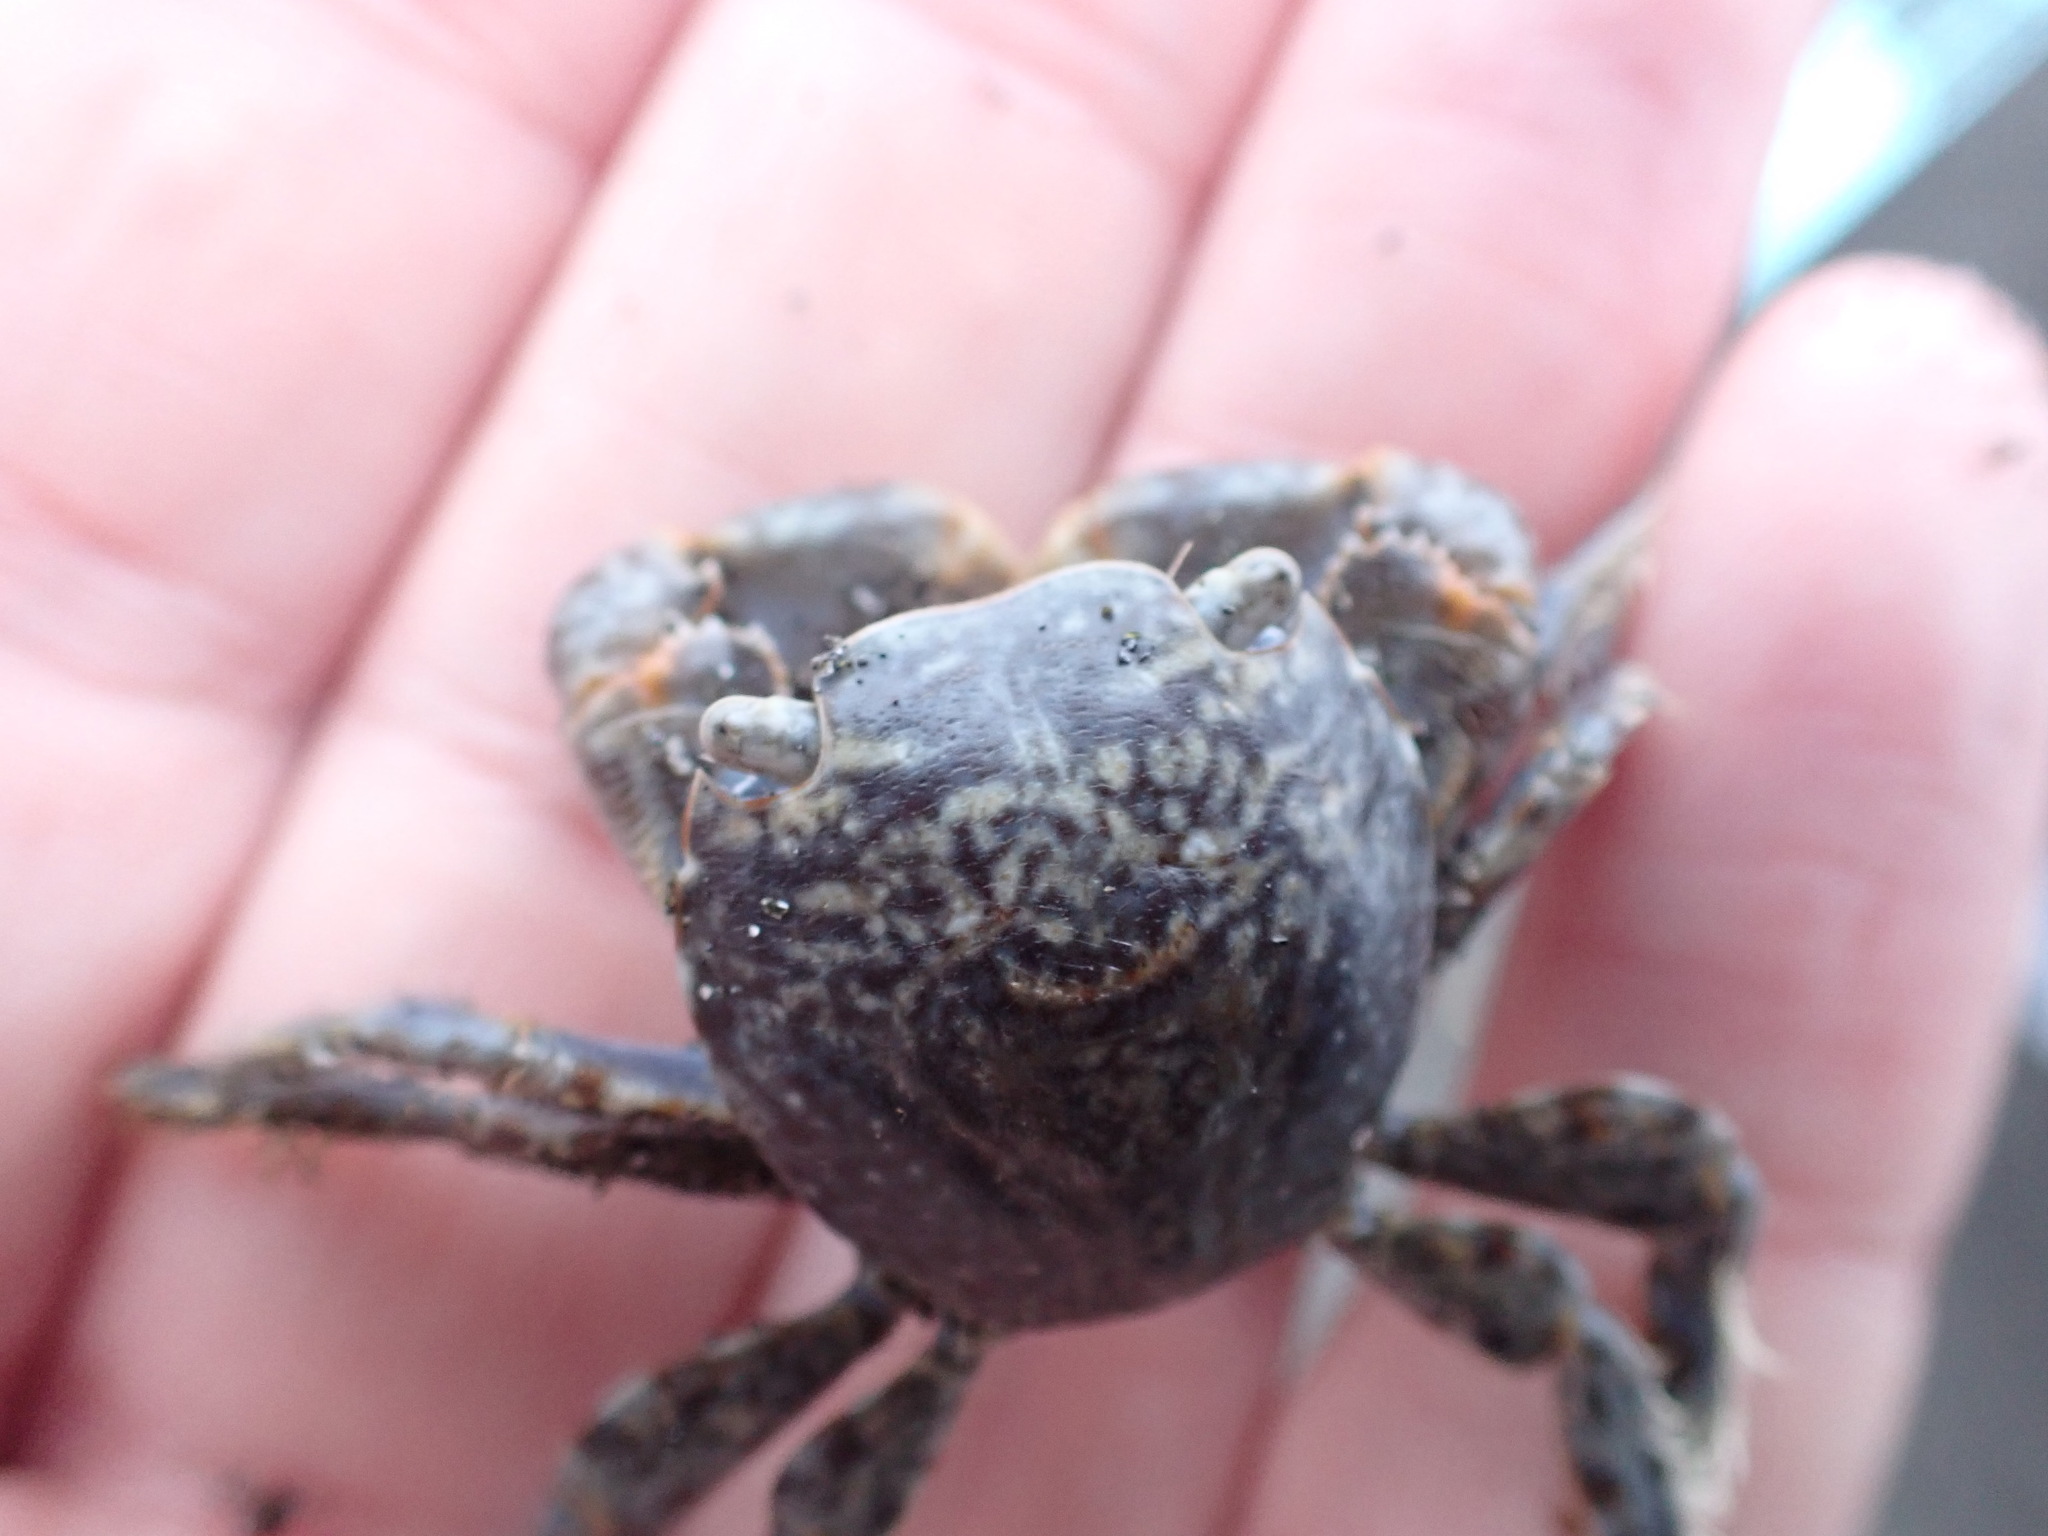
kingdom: Animalia
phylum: Arthropoda
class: Malacostraca
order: Decapoda
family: Grapsidae
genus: Planes
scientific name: Planes minutus
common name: Gulf weed crab
